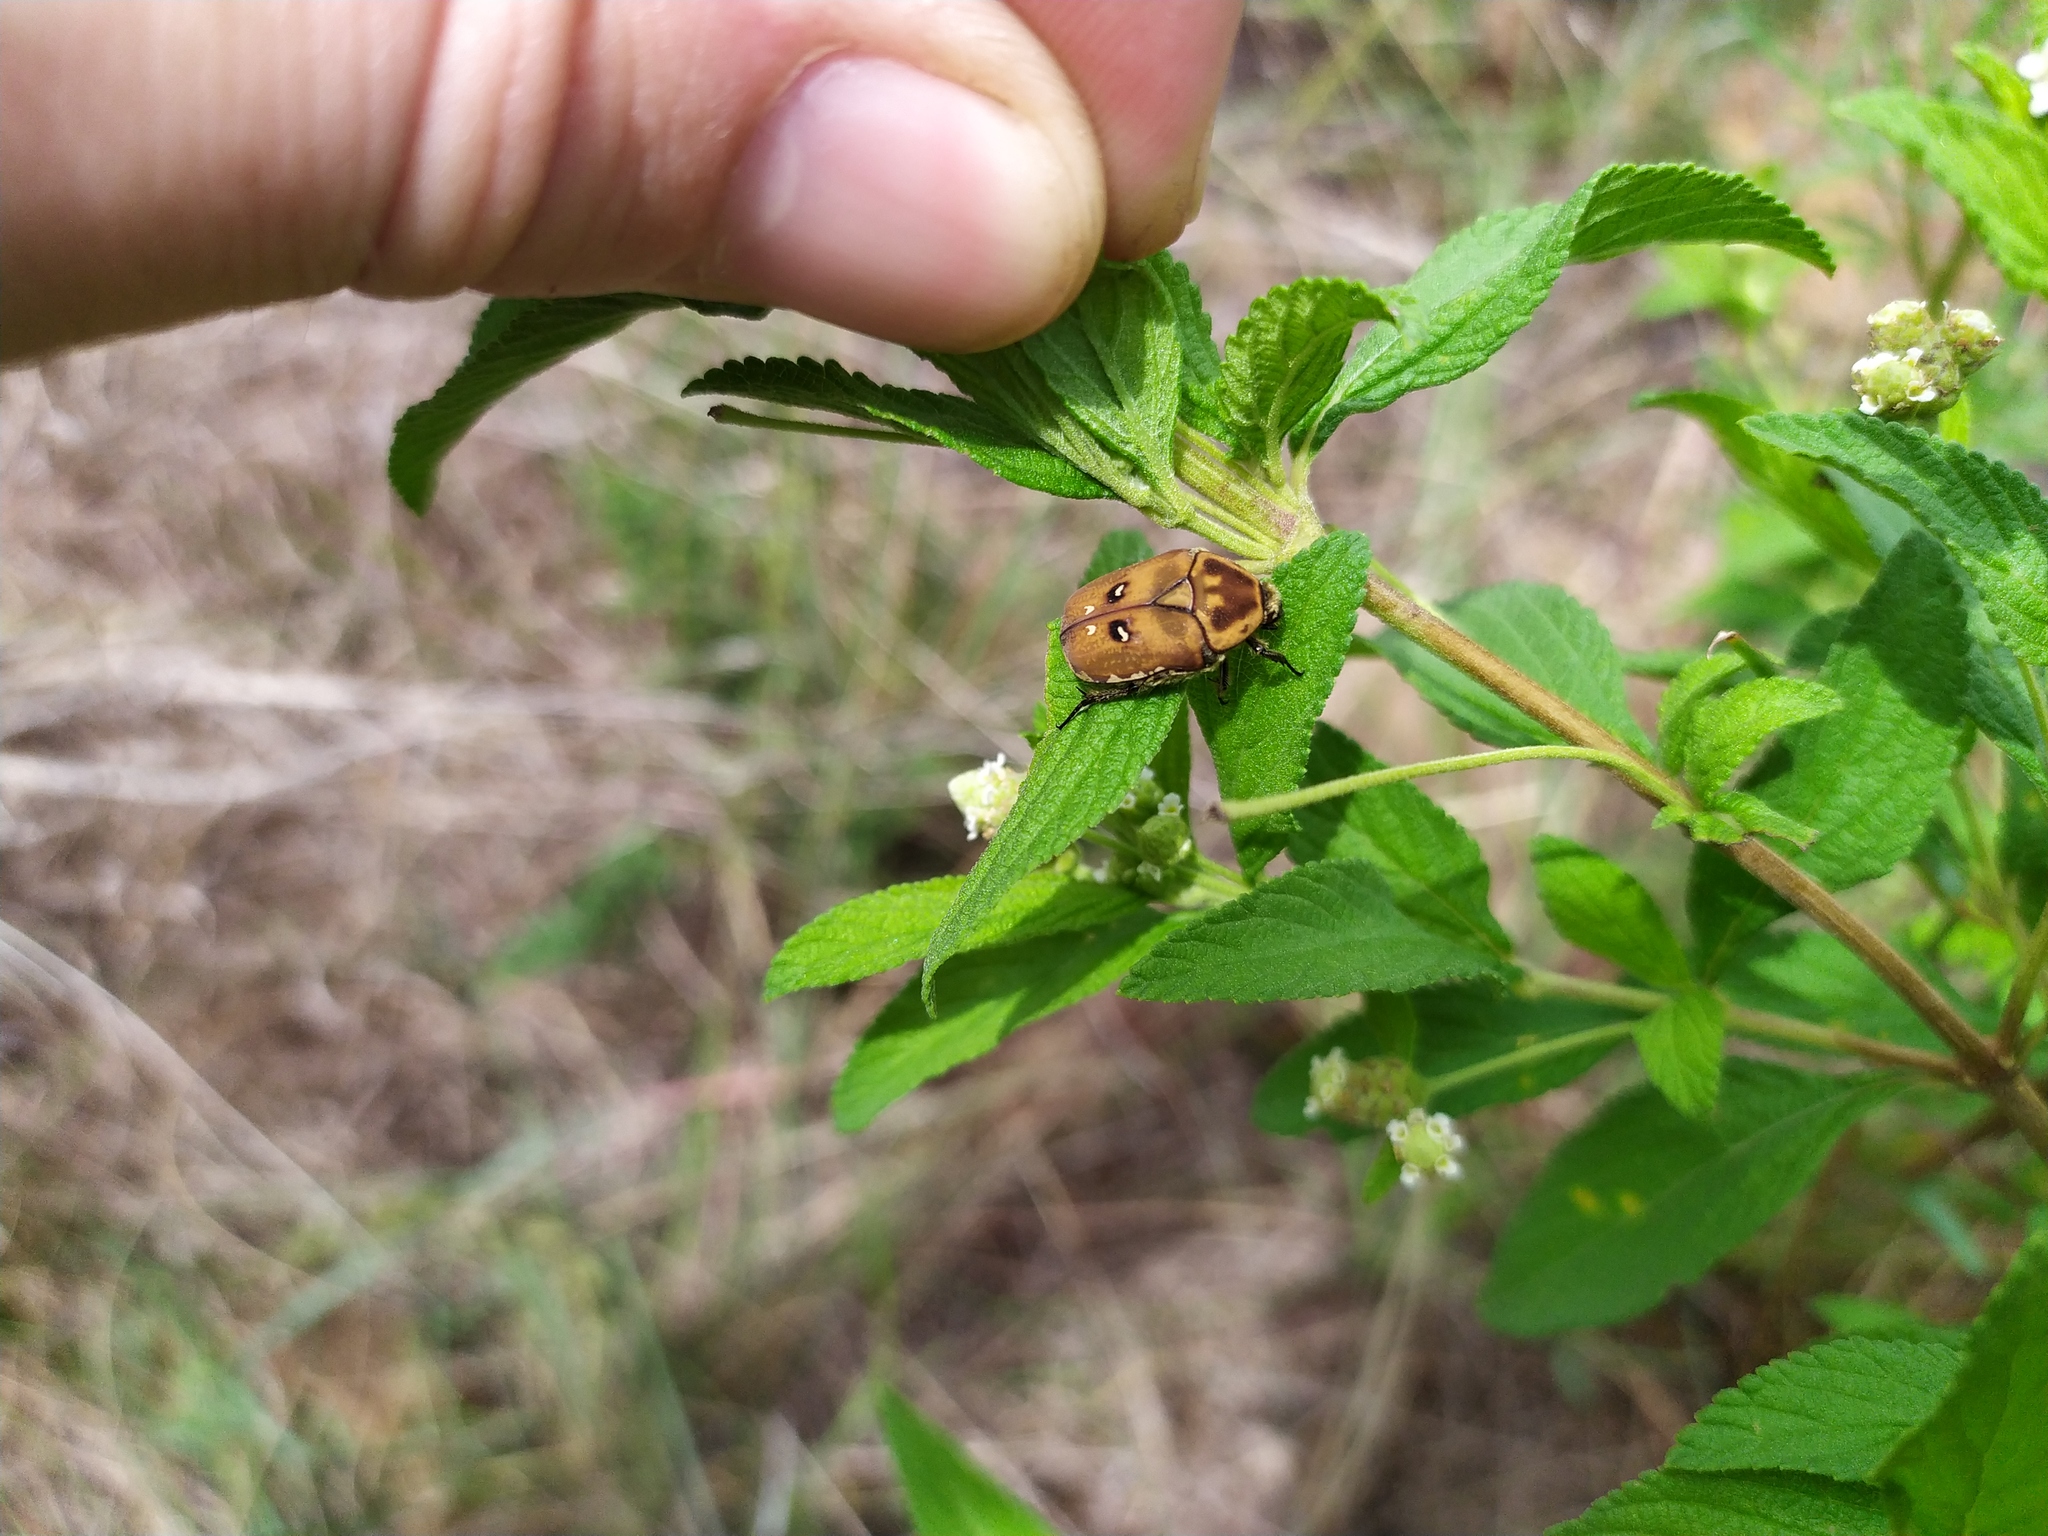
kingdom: Animalia
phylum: Arthropoda
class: Insecta
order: Coleoptera
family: Scarabaeidae
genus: Tephraea
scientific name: Tephraea simonsi
